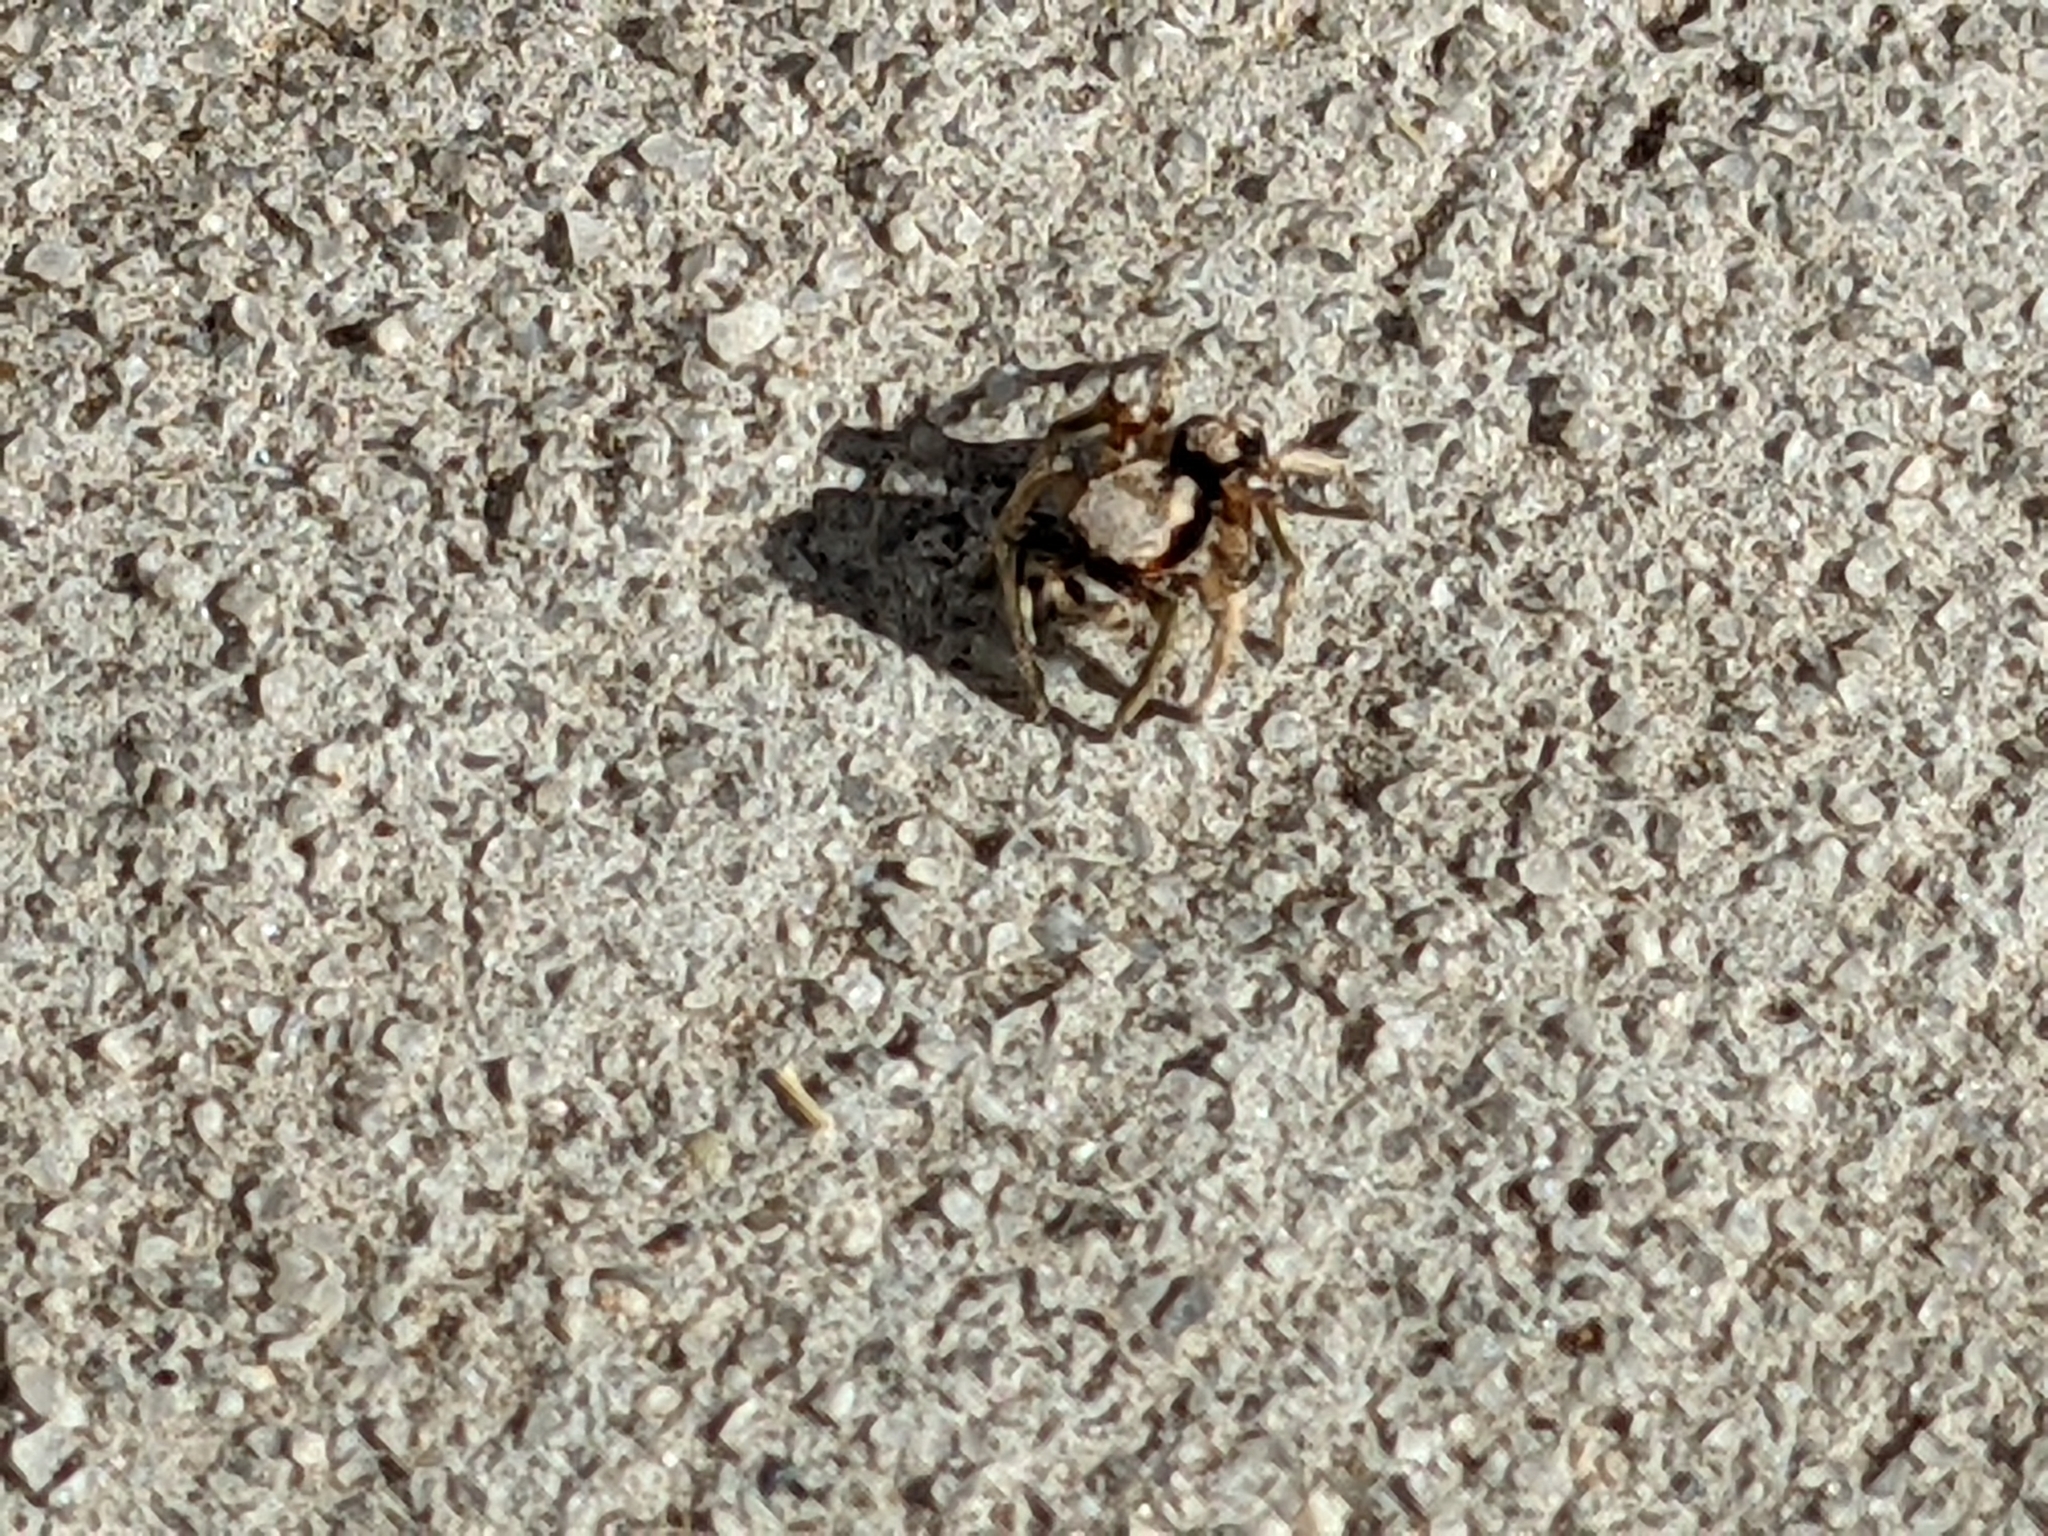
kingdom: Animalia
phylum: Arthropoda
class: Arachnida
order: Araneae
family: Salticidae
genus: Habronattus
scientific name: Habronattus pyrrithrix
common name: Jumping spider
